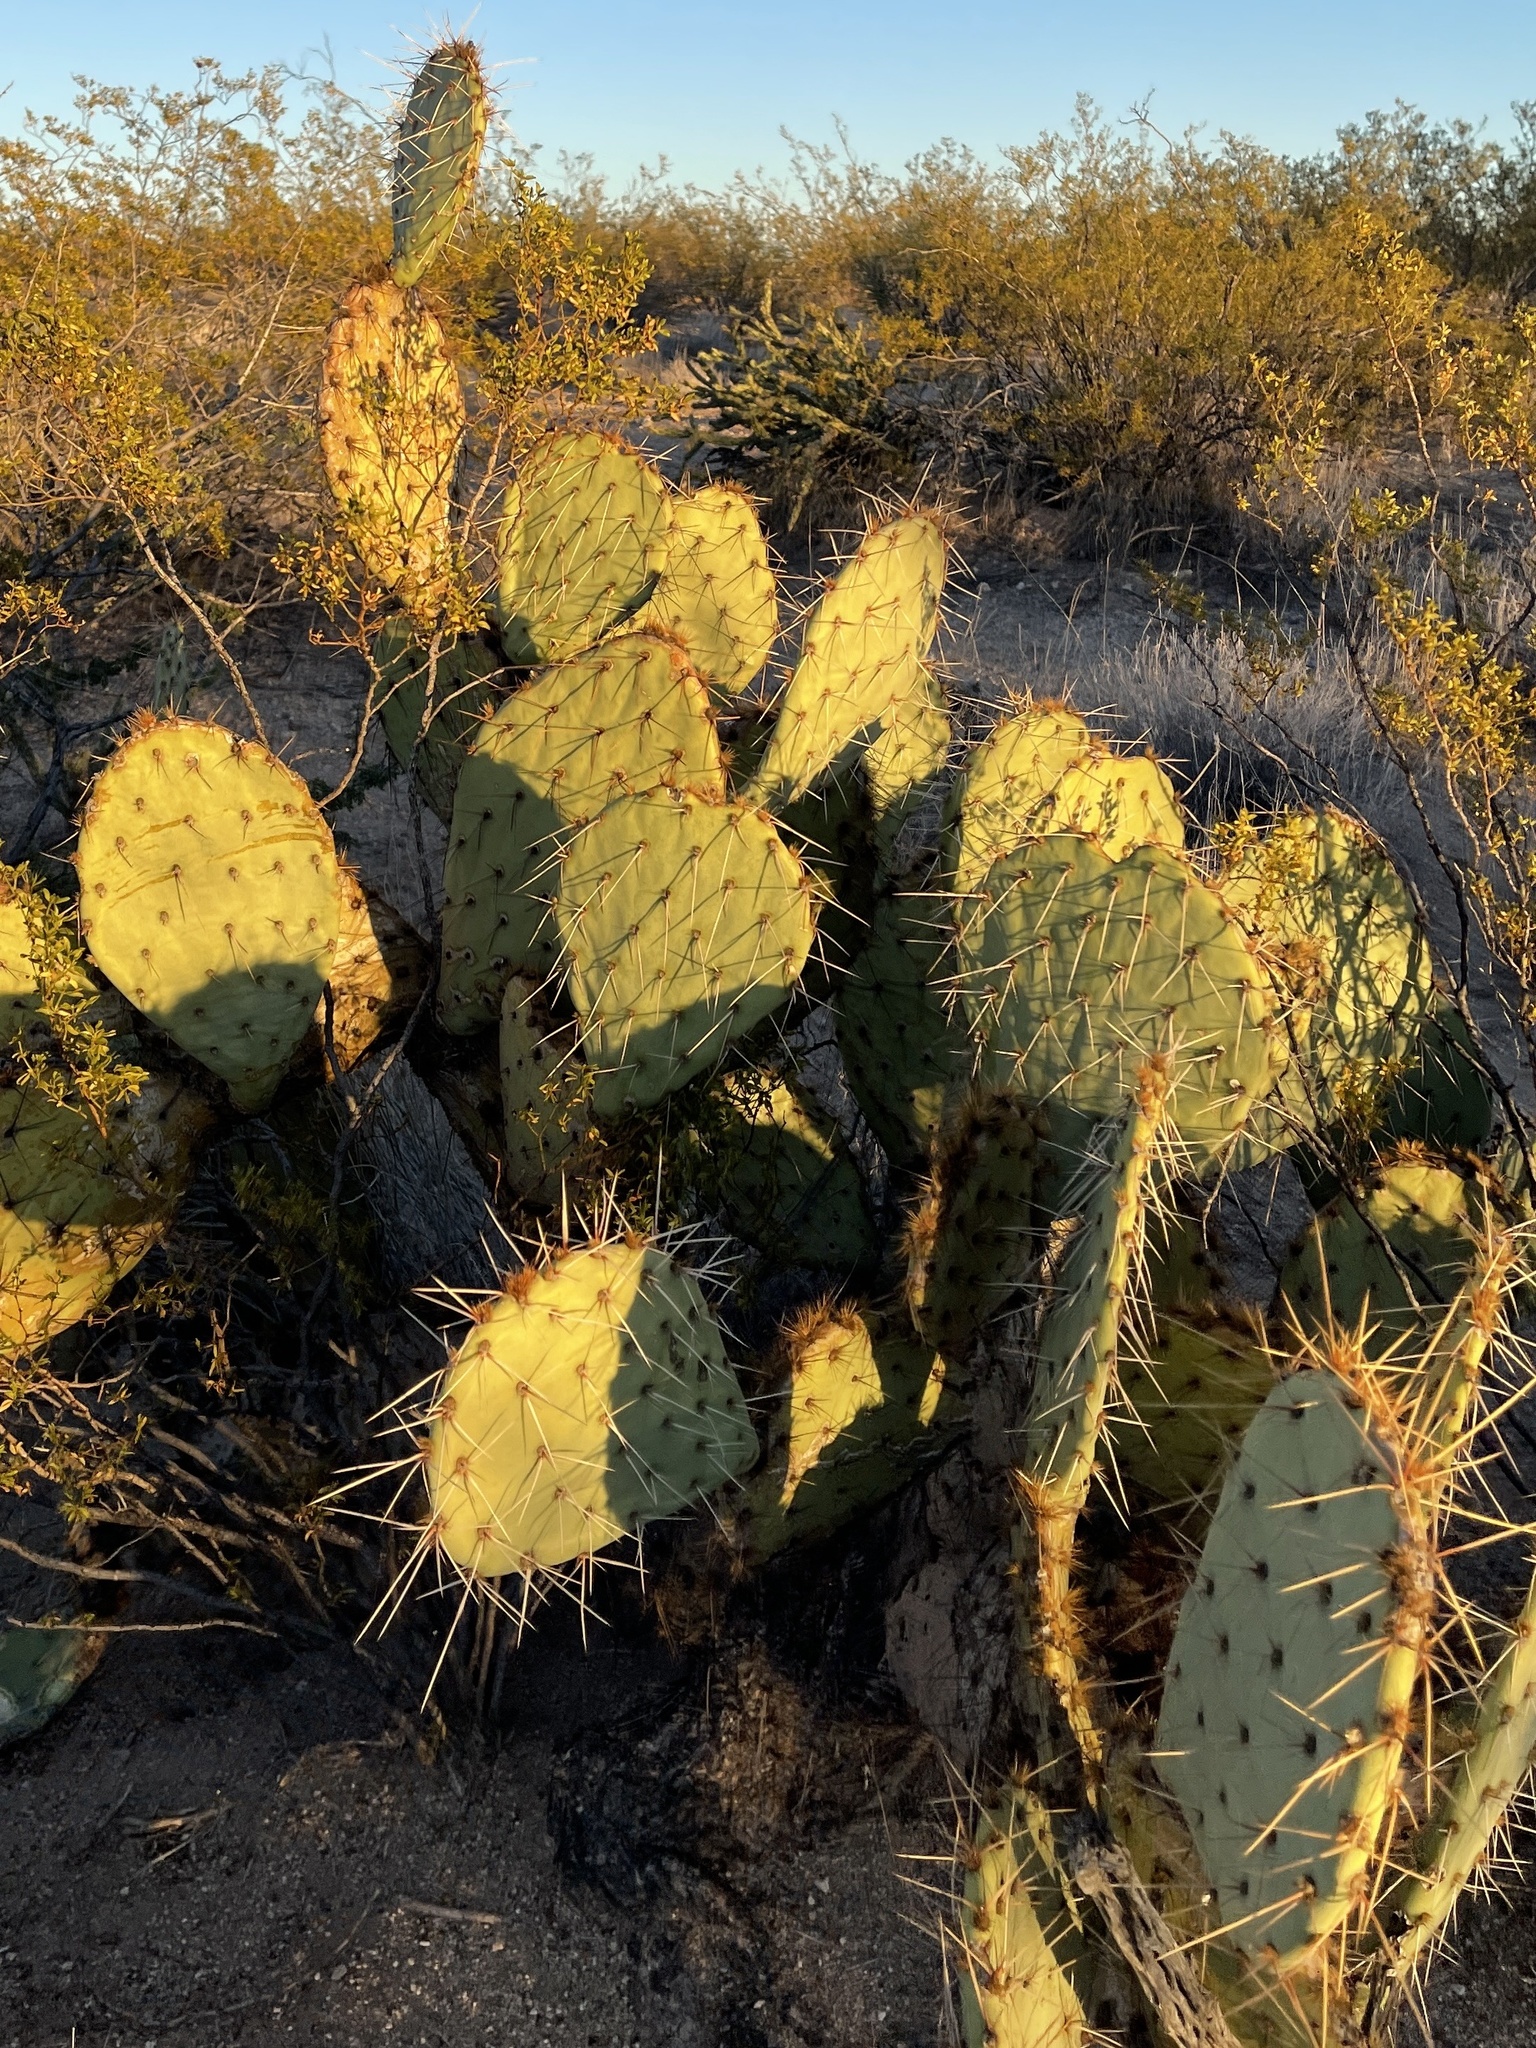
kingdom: Plantae
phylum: Tracheophyta
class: Magnoliopsida
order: Caryophyllales
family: Cactaceae
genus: Opuntia
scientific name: Opuntia engelmannii
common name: Cactus-apple
